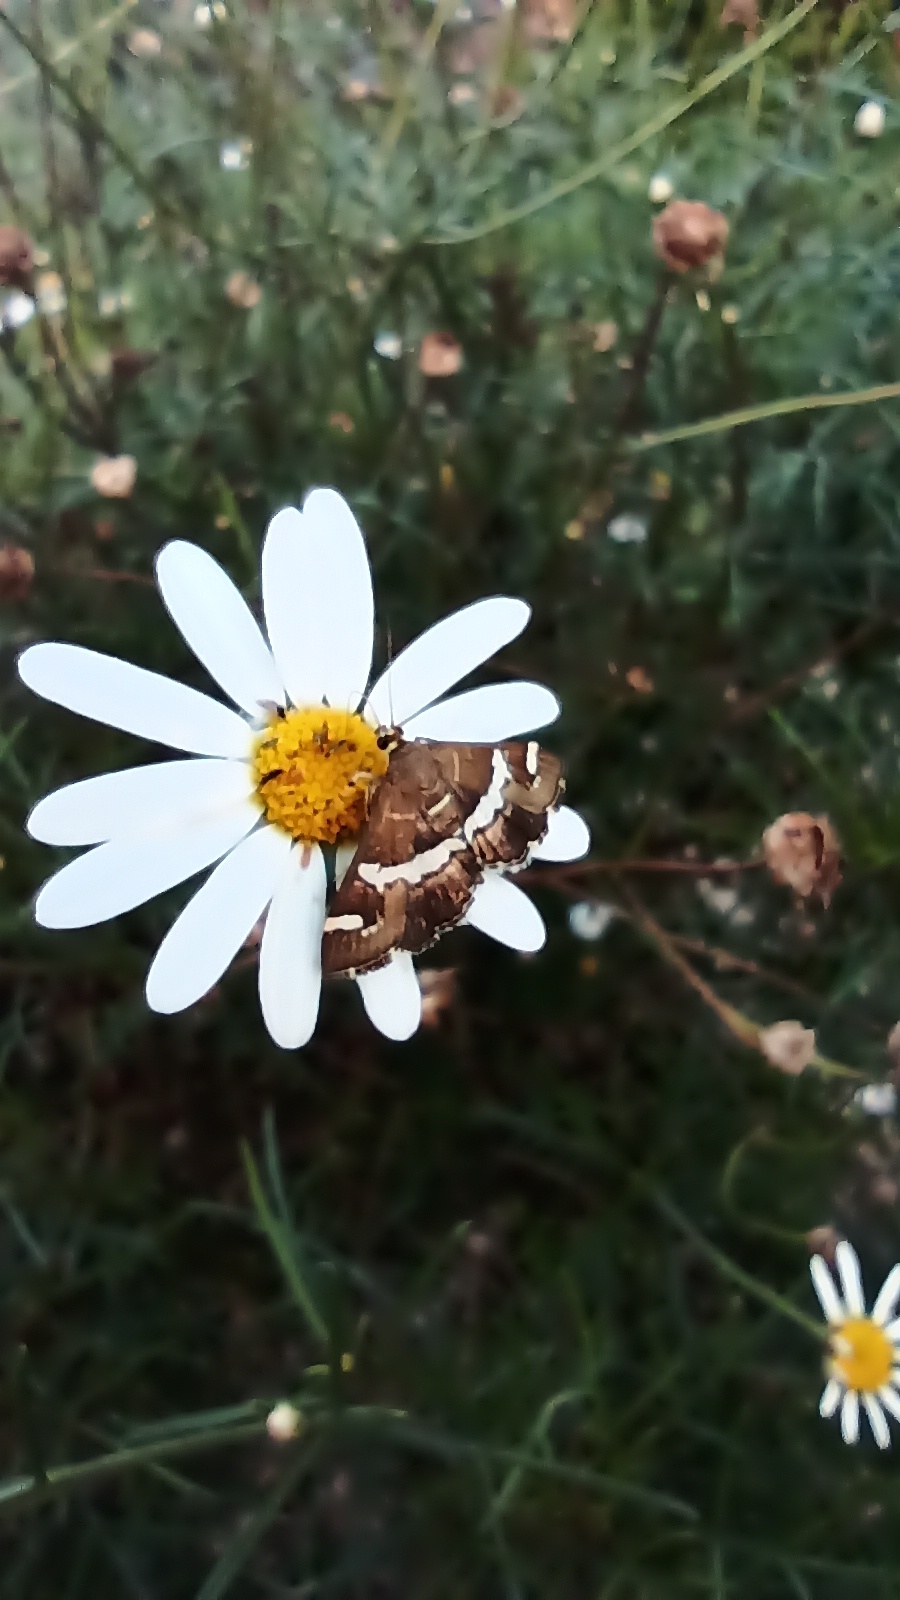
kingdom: Animalia
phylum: Arthropoda
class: Insecta
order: Lepidoptera
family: Crambidae
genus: Spoladea
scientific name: Spoladea recurvalis
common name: Beet webworm moth
